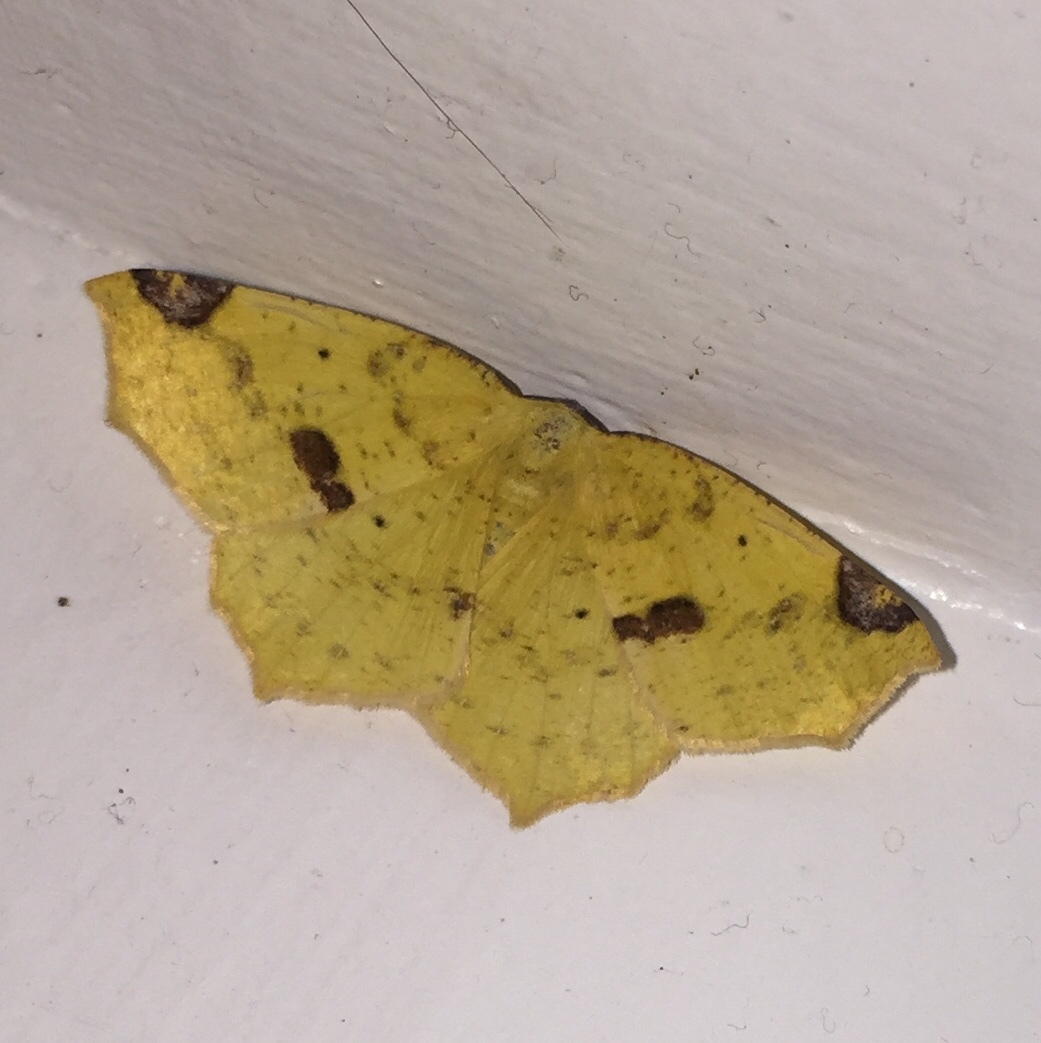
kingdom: Animalia
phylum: Arthropoda
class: Insecta
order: Lepidoptera
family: Geometridae
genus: Antepione
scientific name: Antepione thisoaria
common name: Variable antipione
